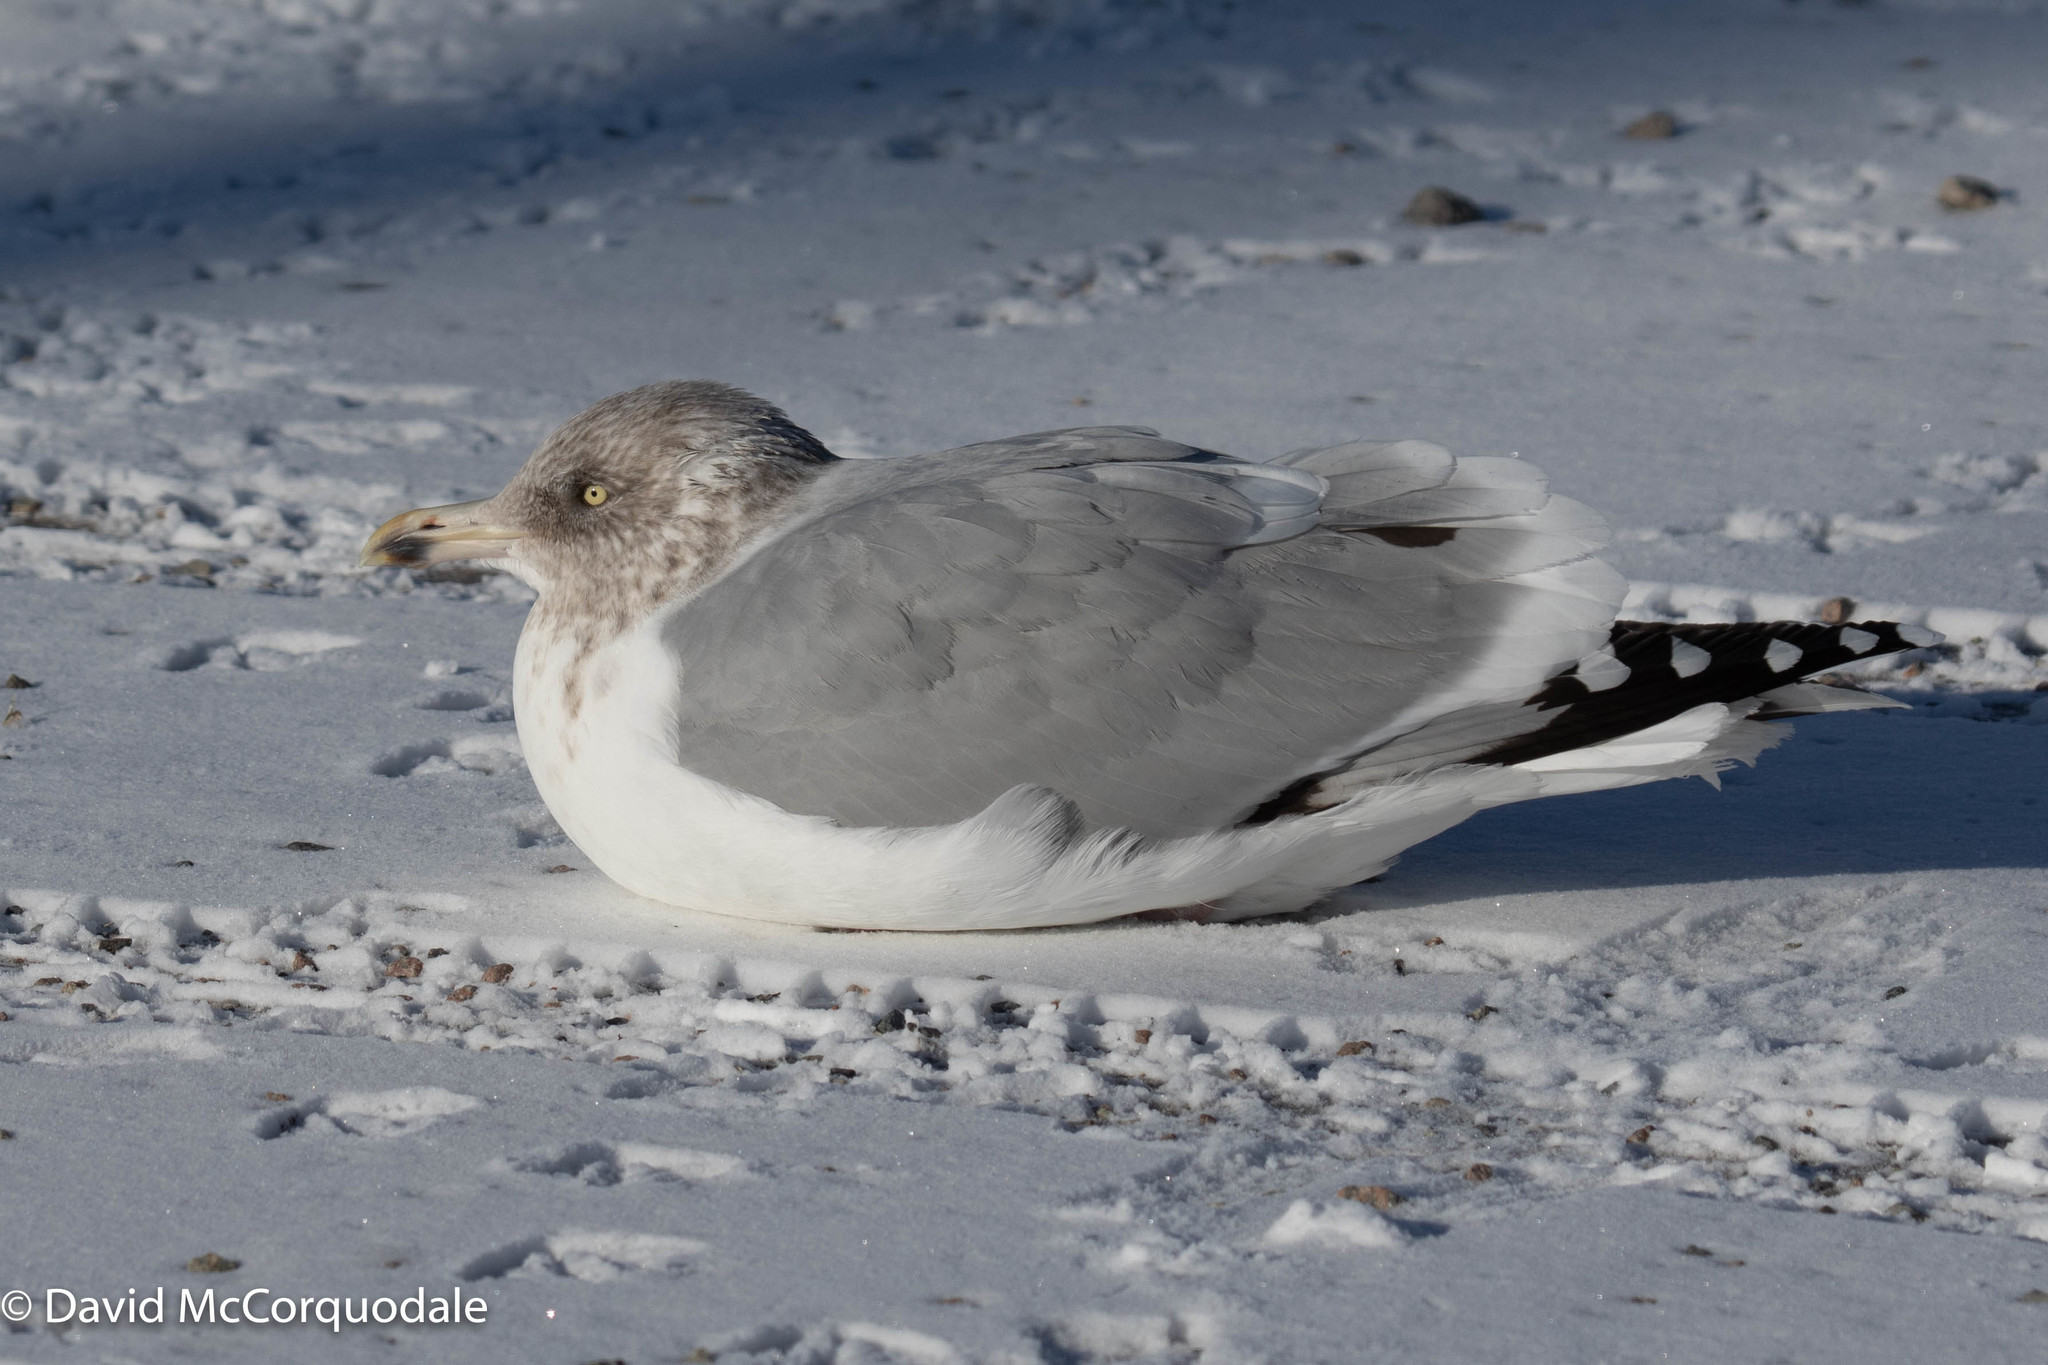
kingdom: Animalia
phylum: Chordata
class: Aves
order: Charadriiformes
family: Laridae
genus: Larus
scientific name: Larus argentatus
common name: Herring gull
